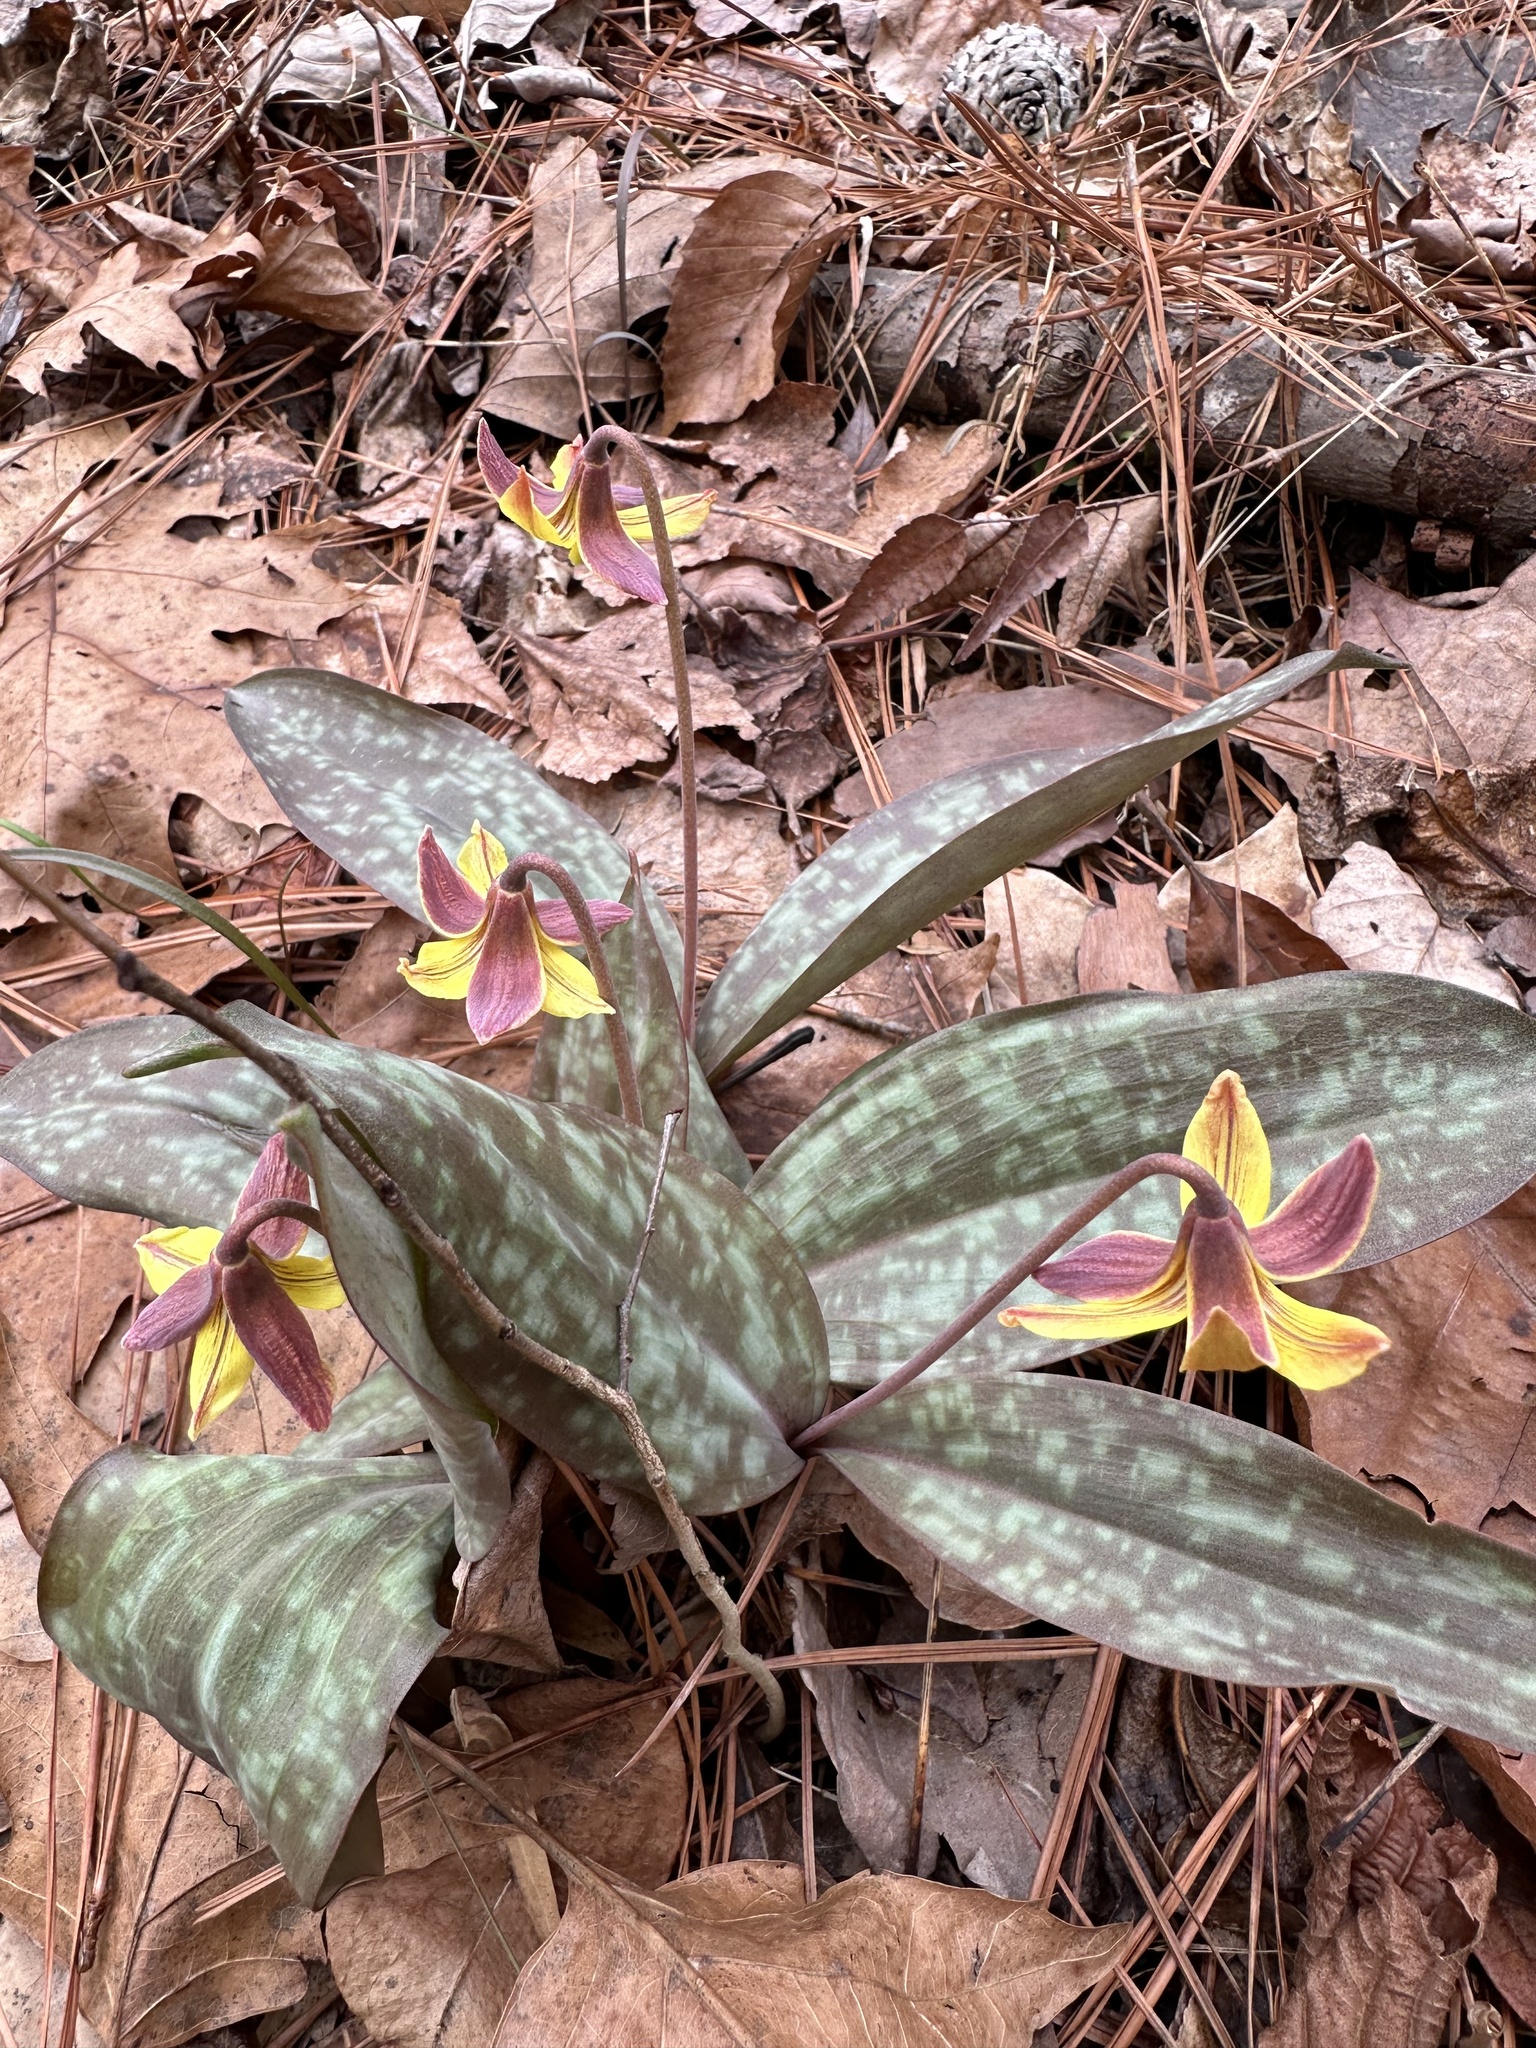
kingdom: Plantae
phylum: Tracheophyta
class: Liliopsida
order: Liliales
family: Liliaceae
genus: Erythronium
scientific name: Erythronium umbilicatum
